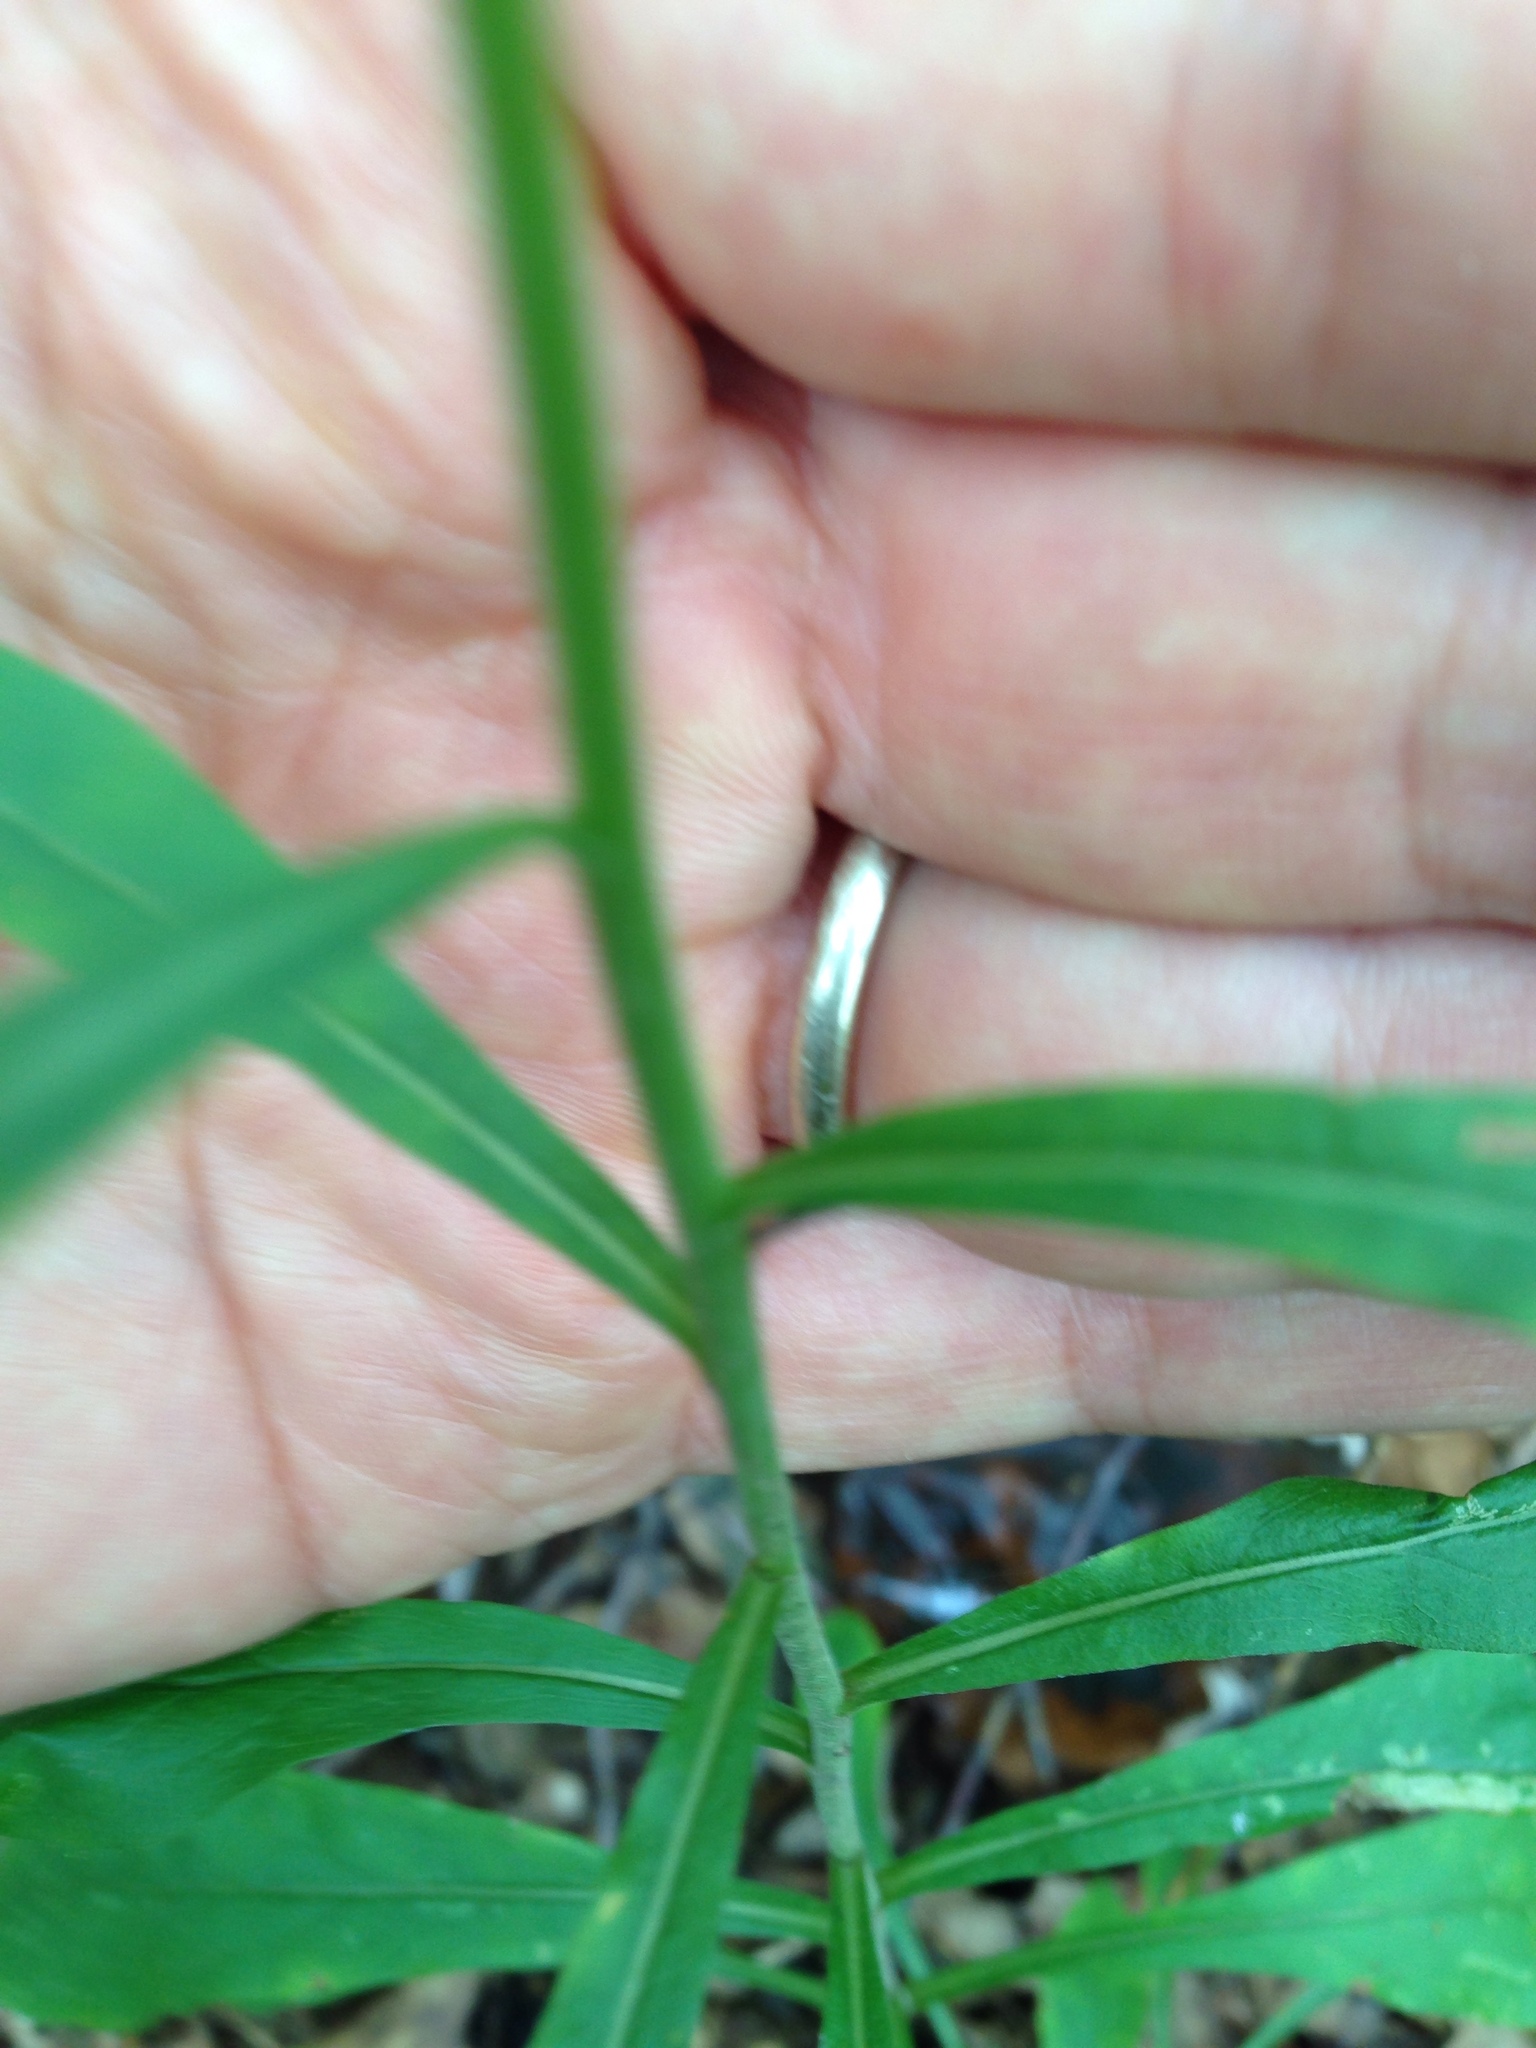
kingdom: Plantae
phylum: Tracheophyta
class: Magnoliopsida
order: Asterales
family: Asteraceae
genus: Solidago
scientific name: Solidago puberula
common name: Downy goldenrod
